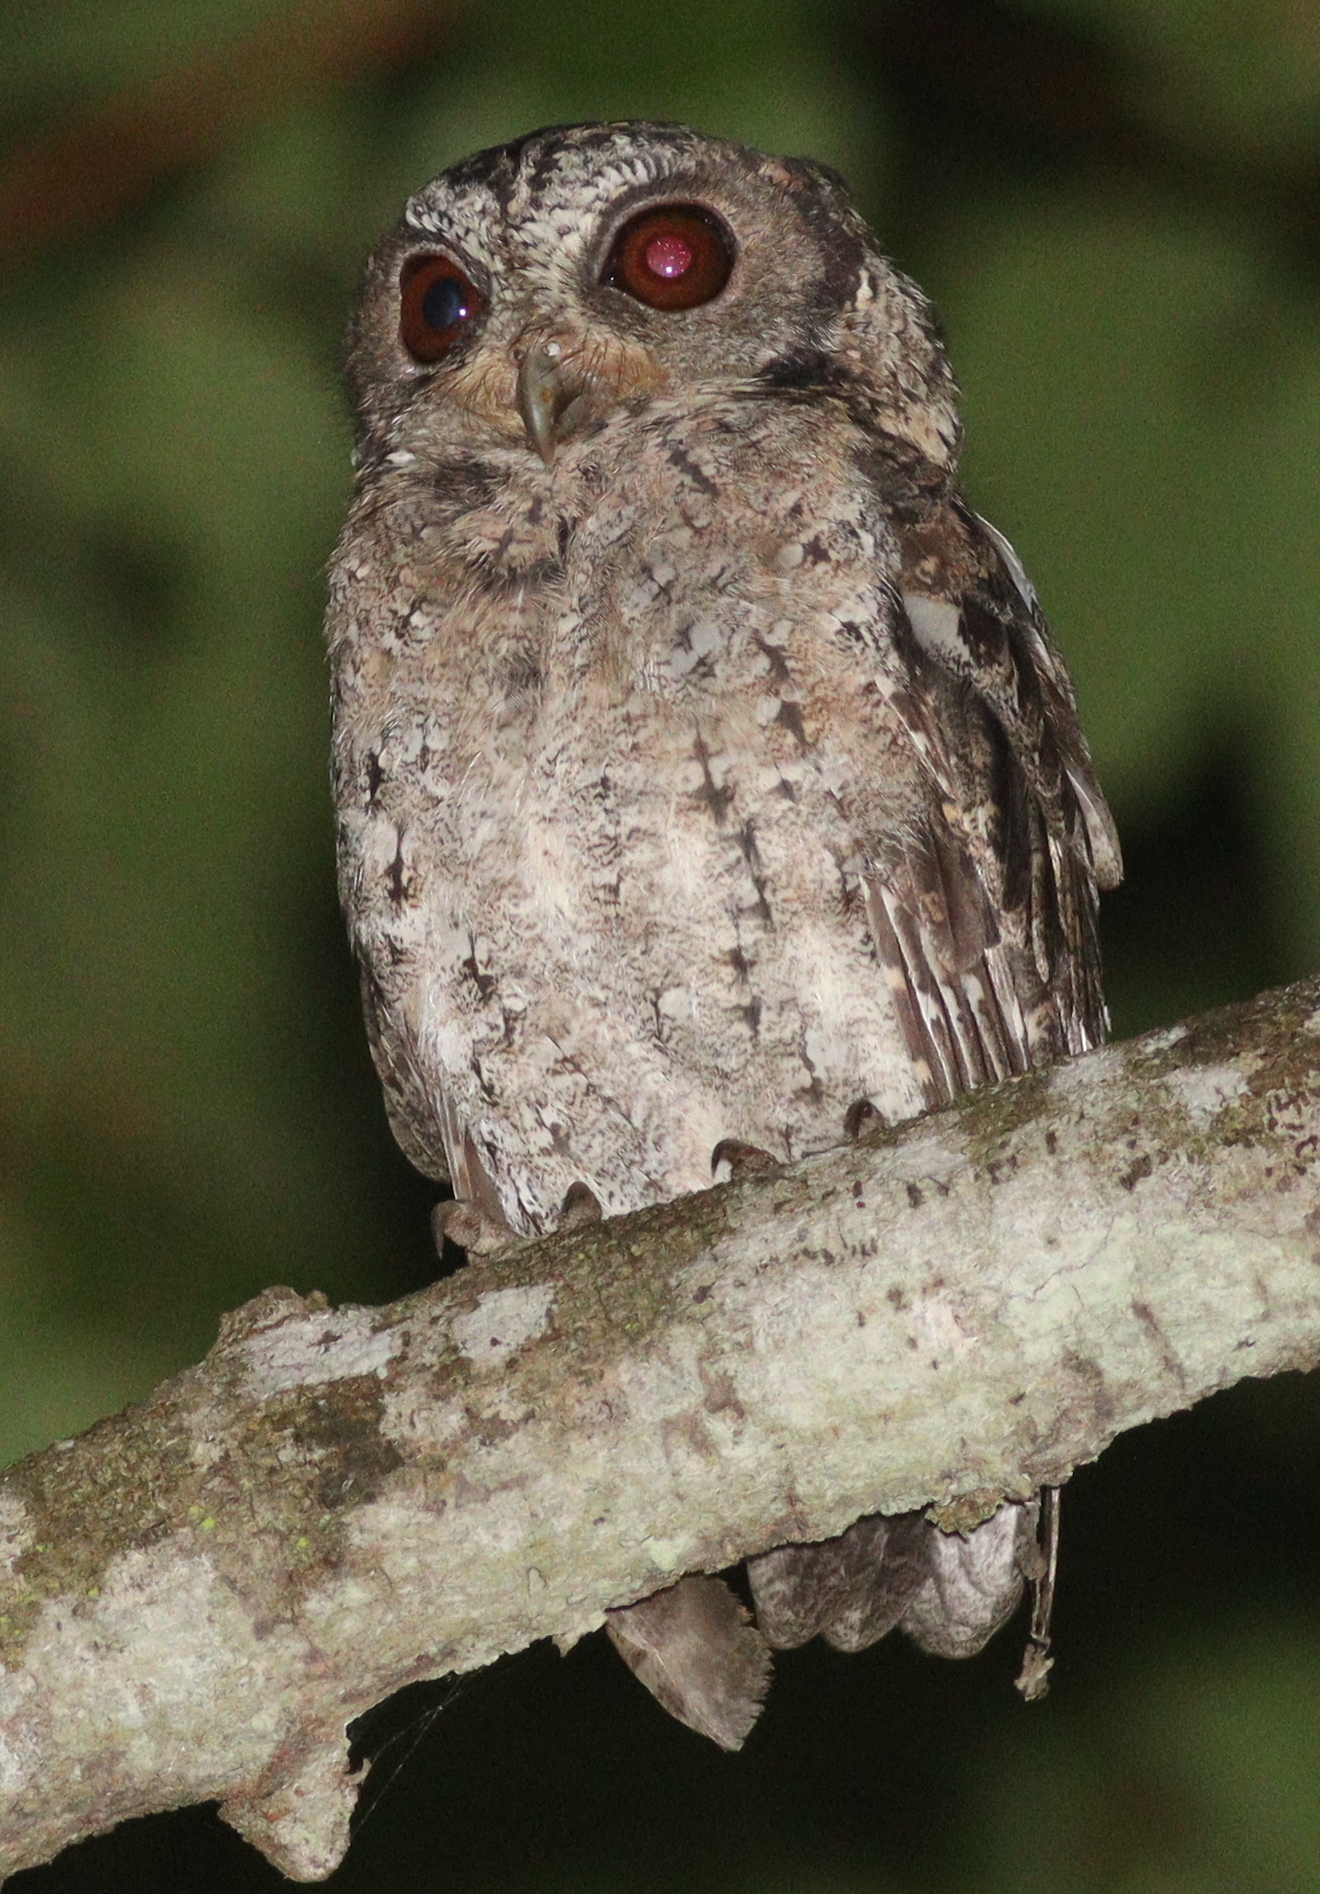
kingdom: Animalia
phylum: Chordata
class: Aves
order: Strigiformes
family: Strigidae
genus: Otus
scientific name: Otus lempiji
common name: Sunda scops-owl
